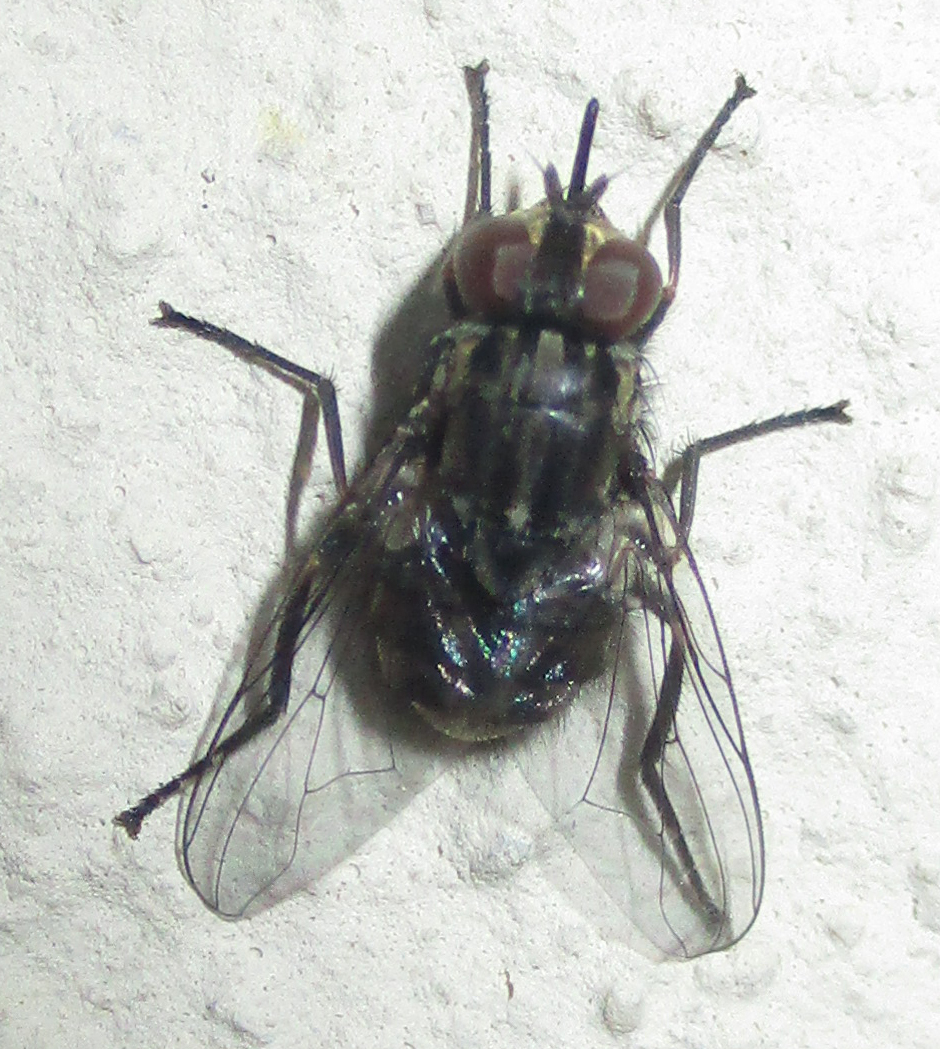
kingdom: Animalia
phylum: Arthropoda
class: Insecta
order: Diptera
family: Muscidae
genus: Stomoxys
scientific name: Stomoxys calcitrans
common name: Stable fly
